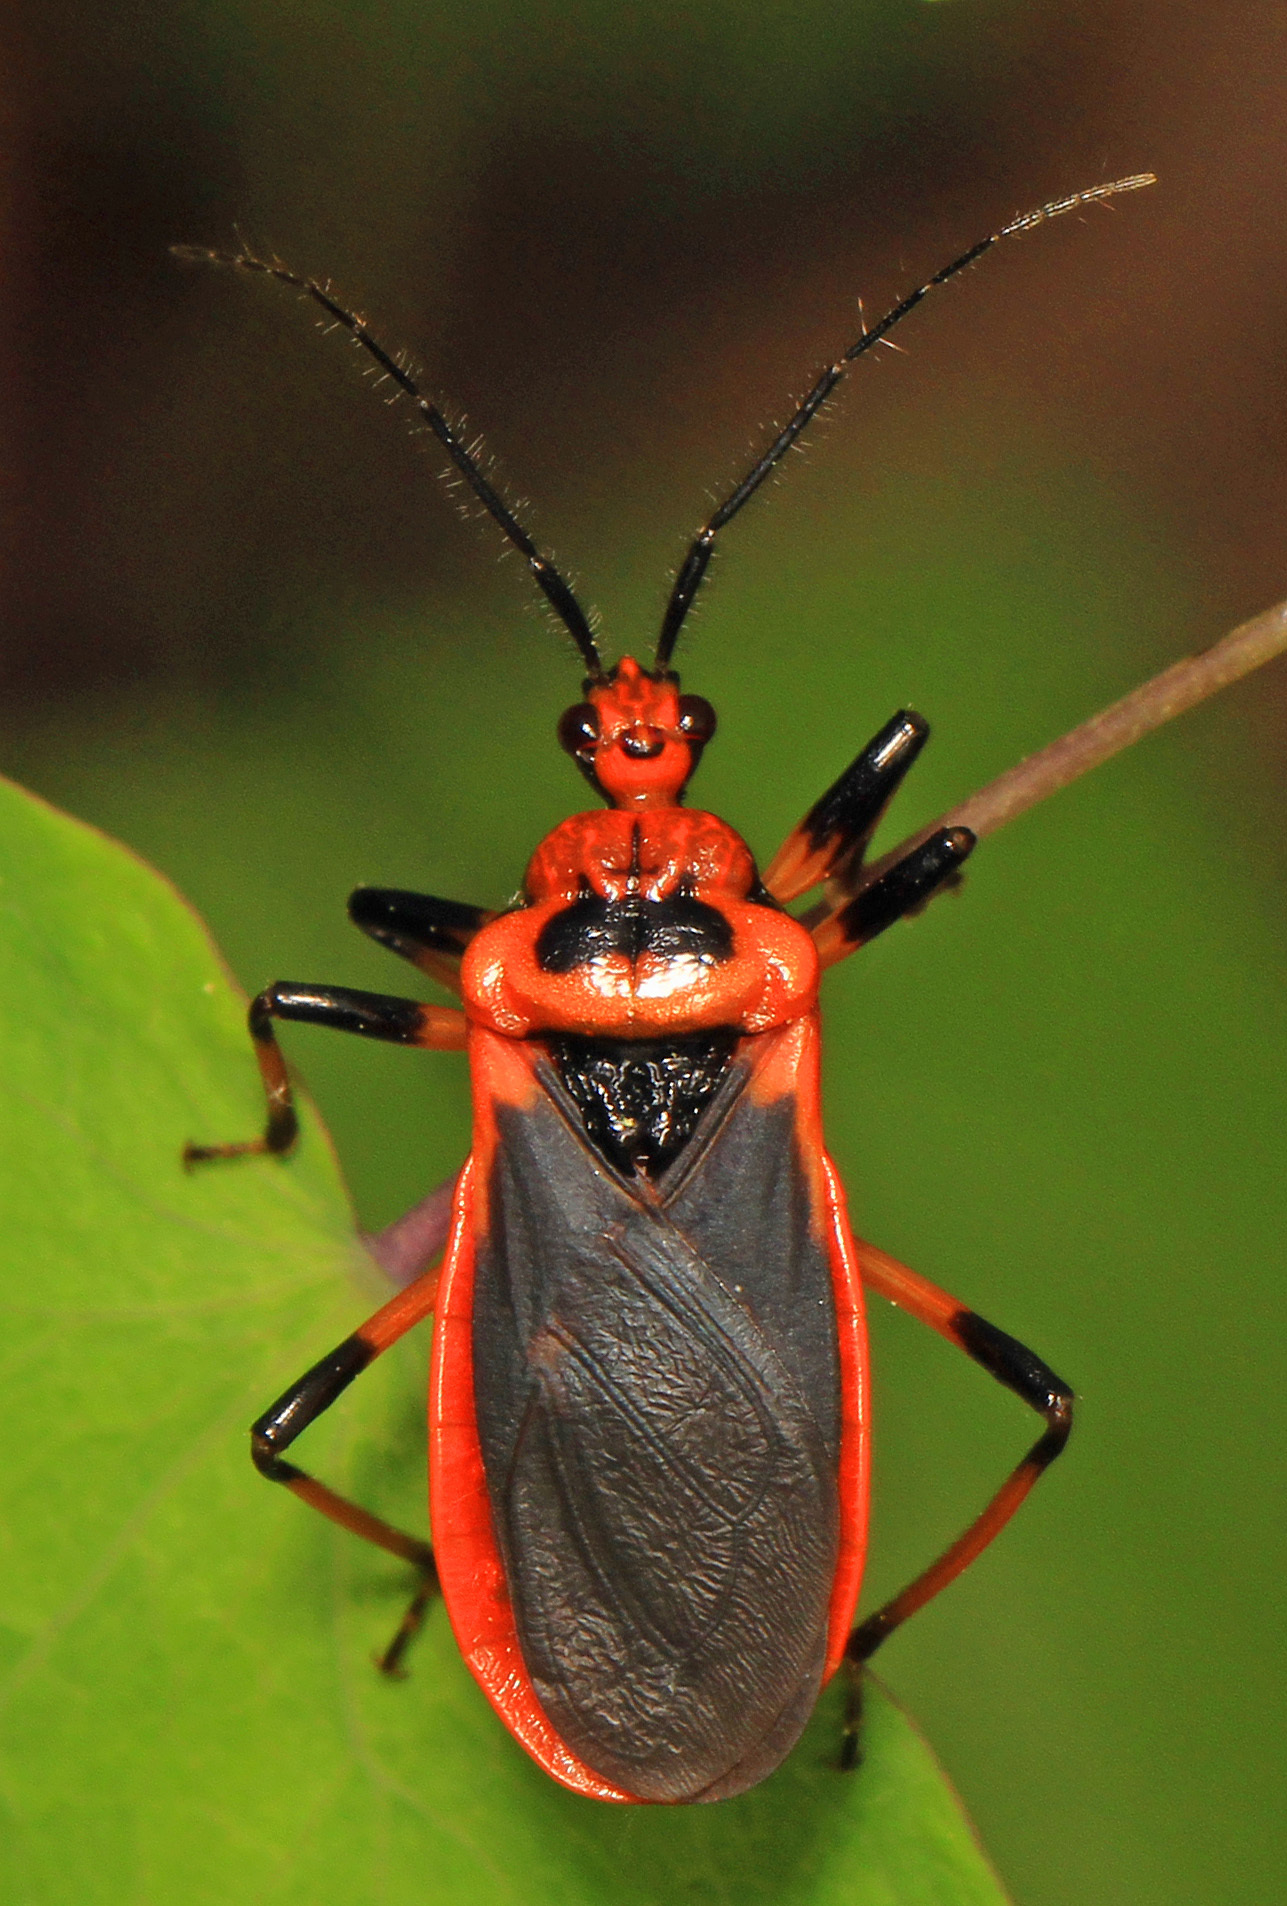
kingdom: Animalia
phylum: Arthropoda
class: Insecta
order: Hemiptera
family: Reduviidae
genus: Rhiginia
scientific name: Rhiginia cruciata
